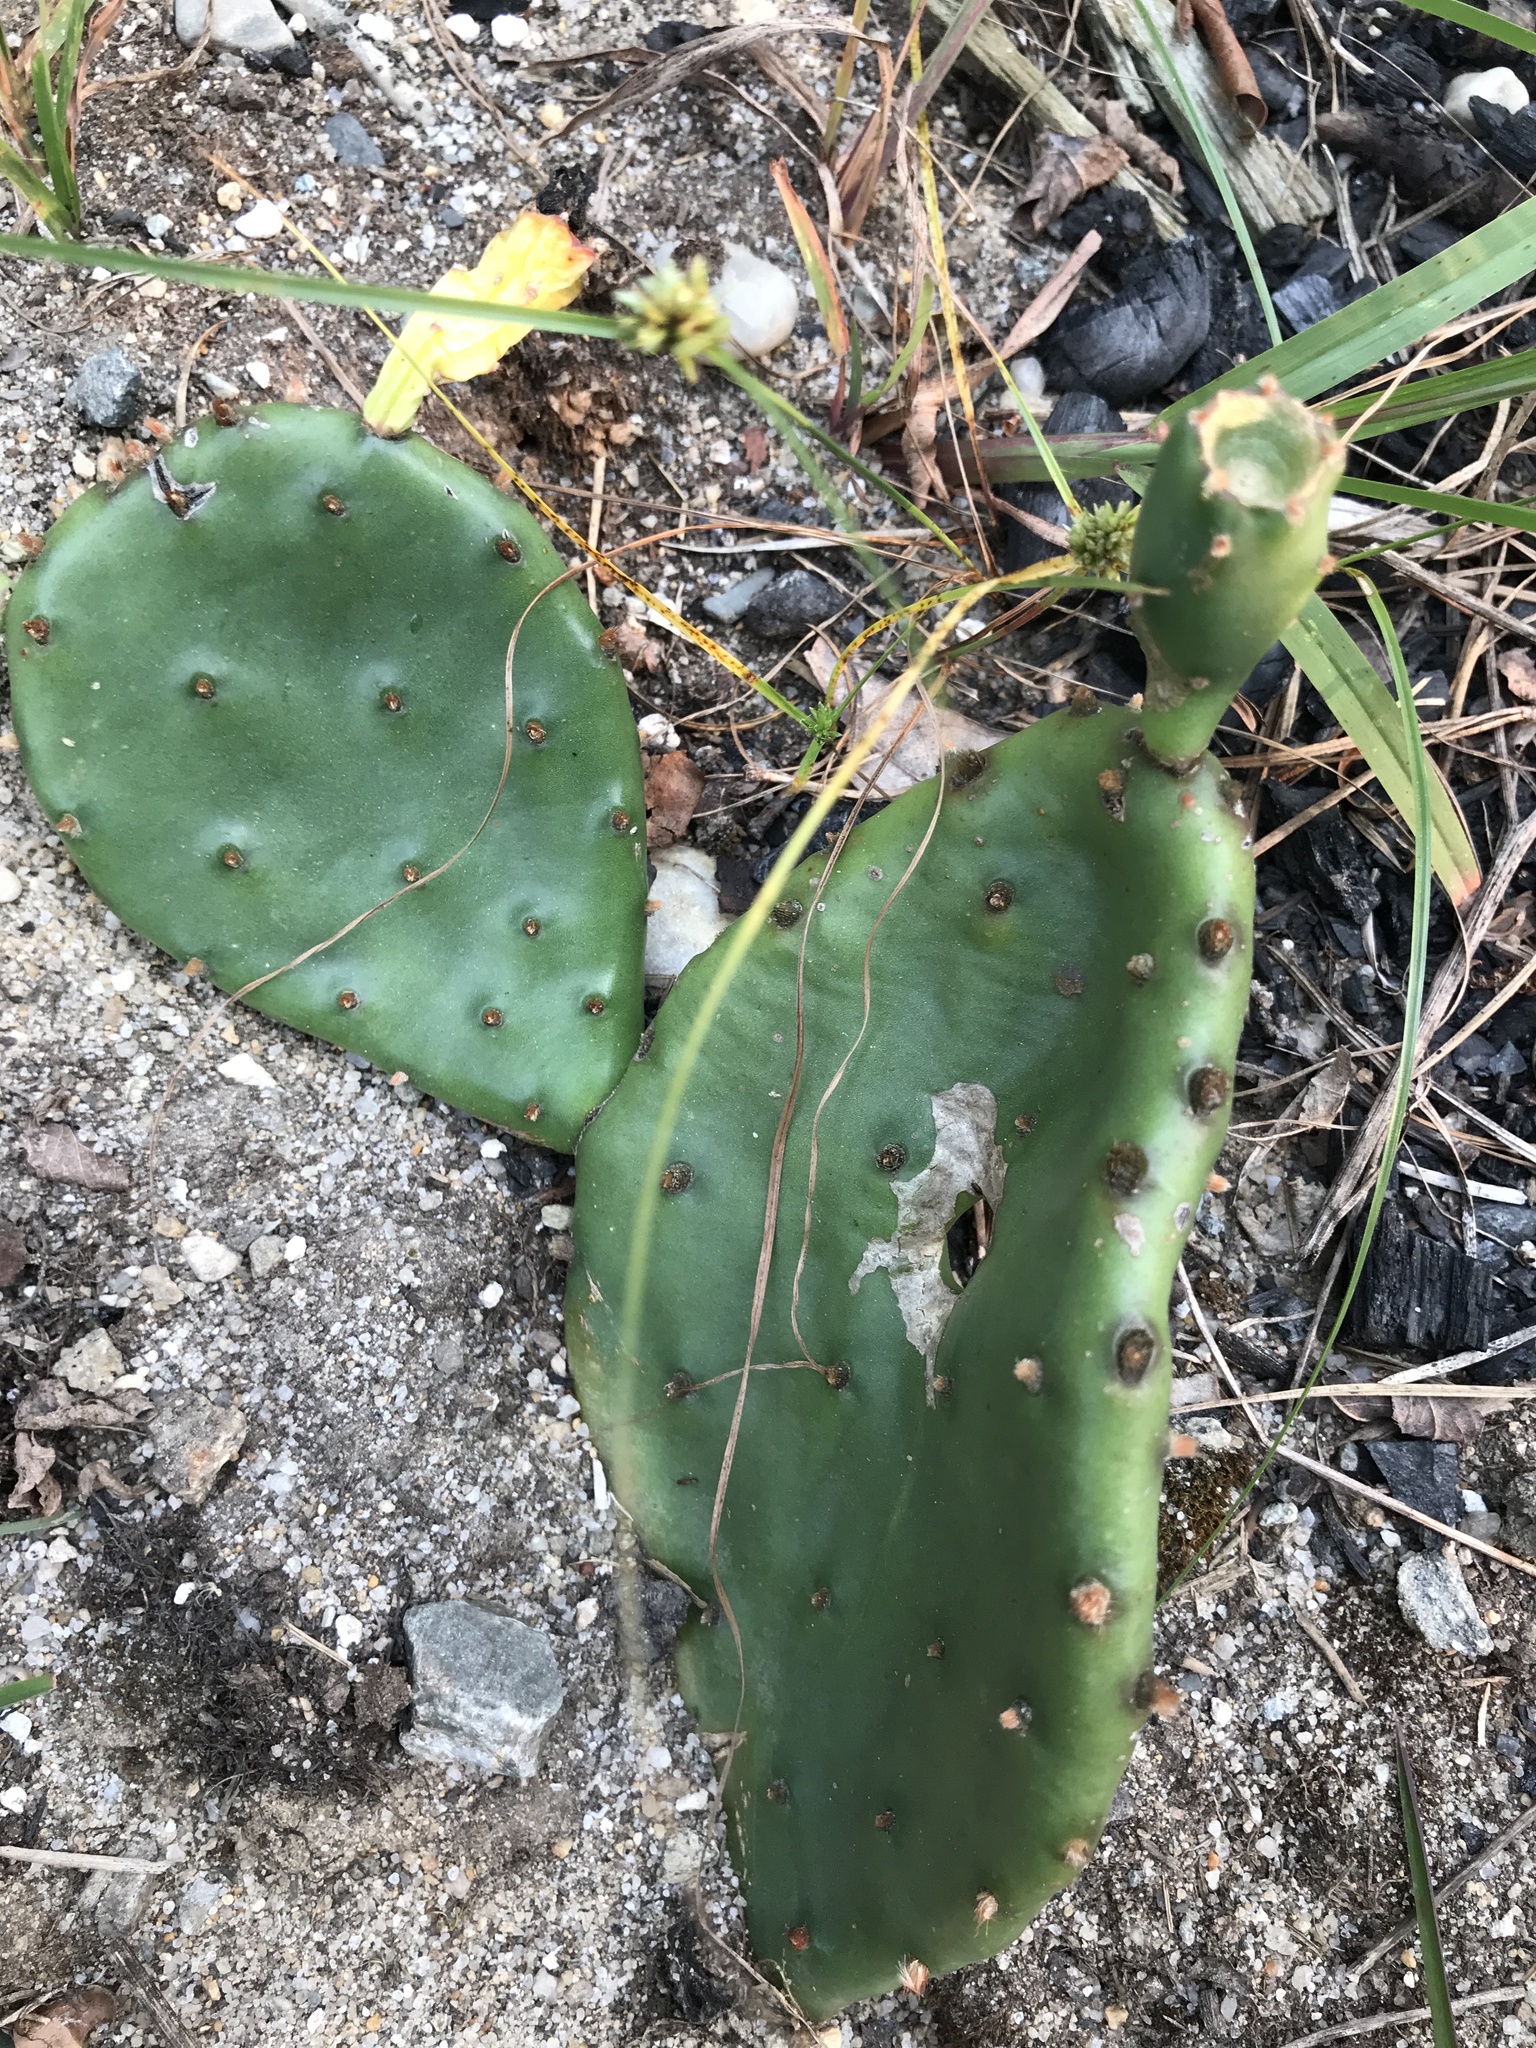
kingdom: Plantae
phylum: Tracheophyta
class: Magnoliopsida
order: Caryophyllales
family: Cactaceae
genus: Opuntia
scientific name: Opuntia humifusa
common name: Eastern prickly-pear
